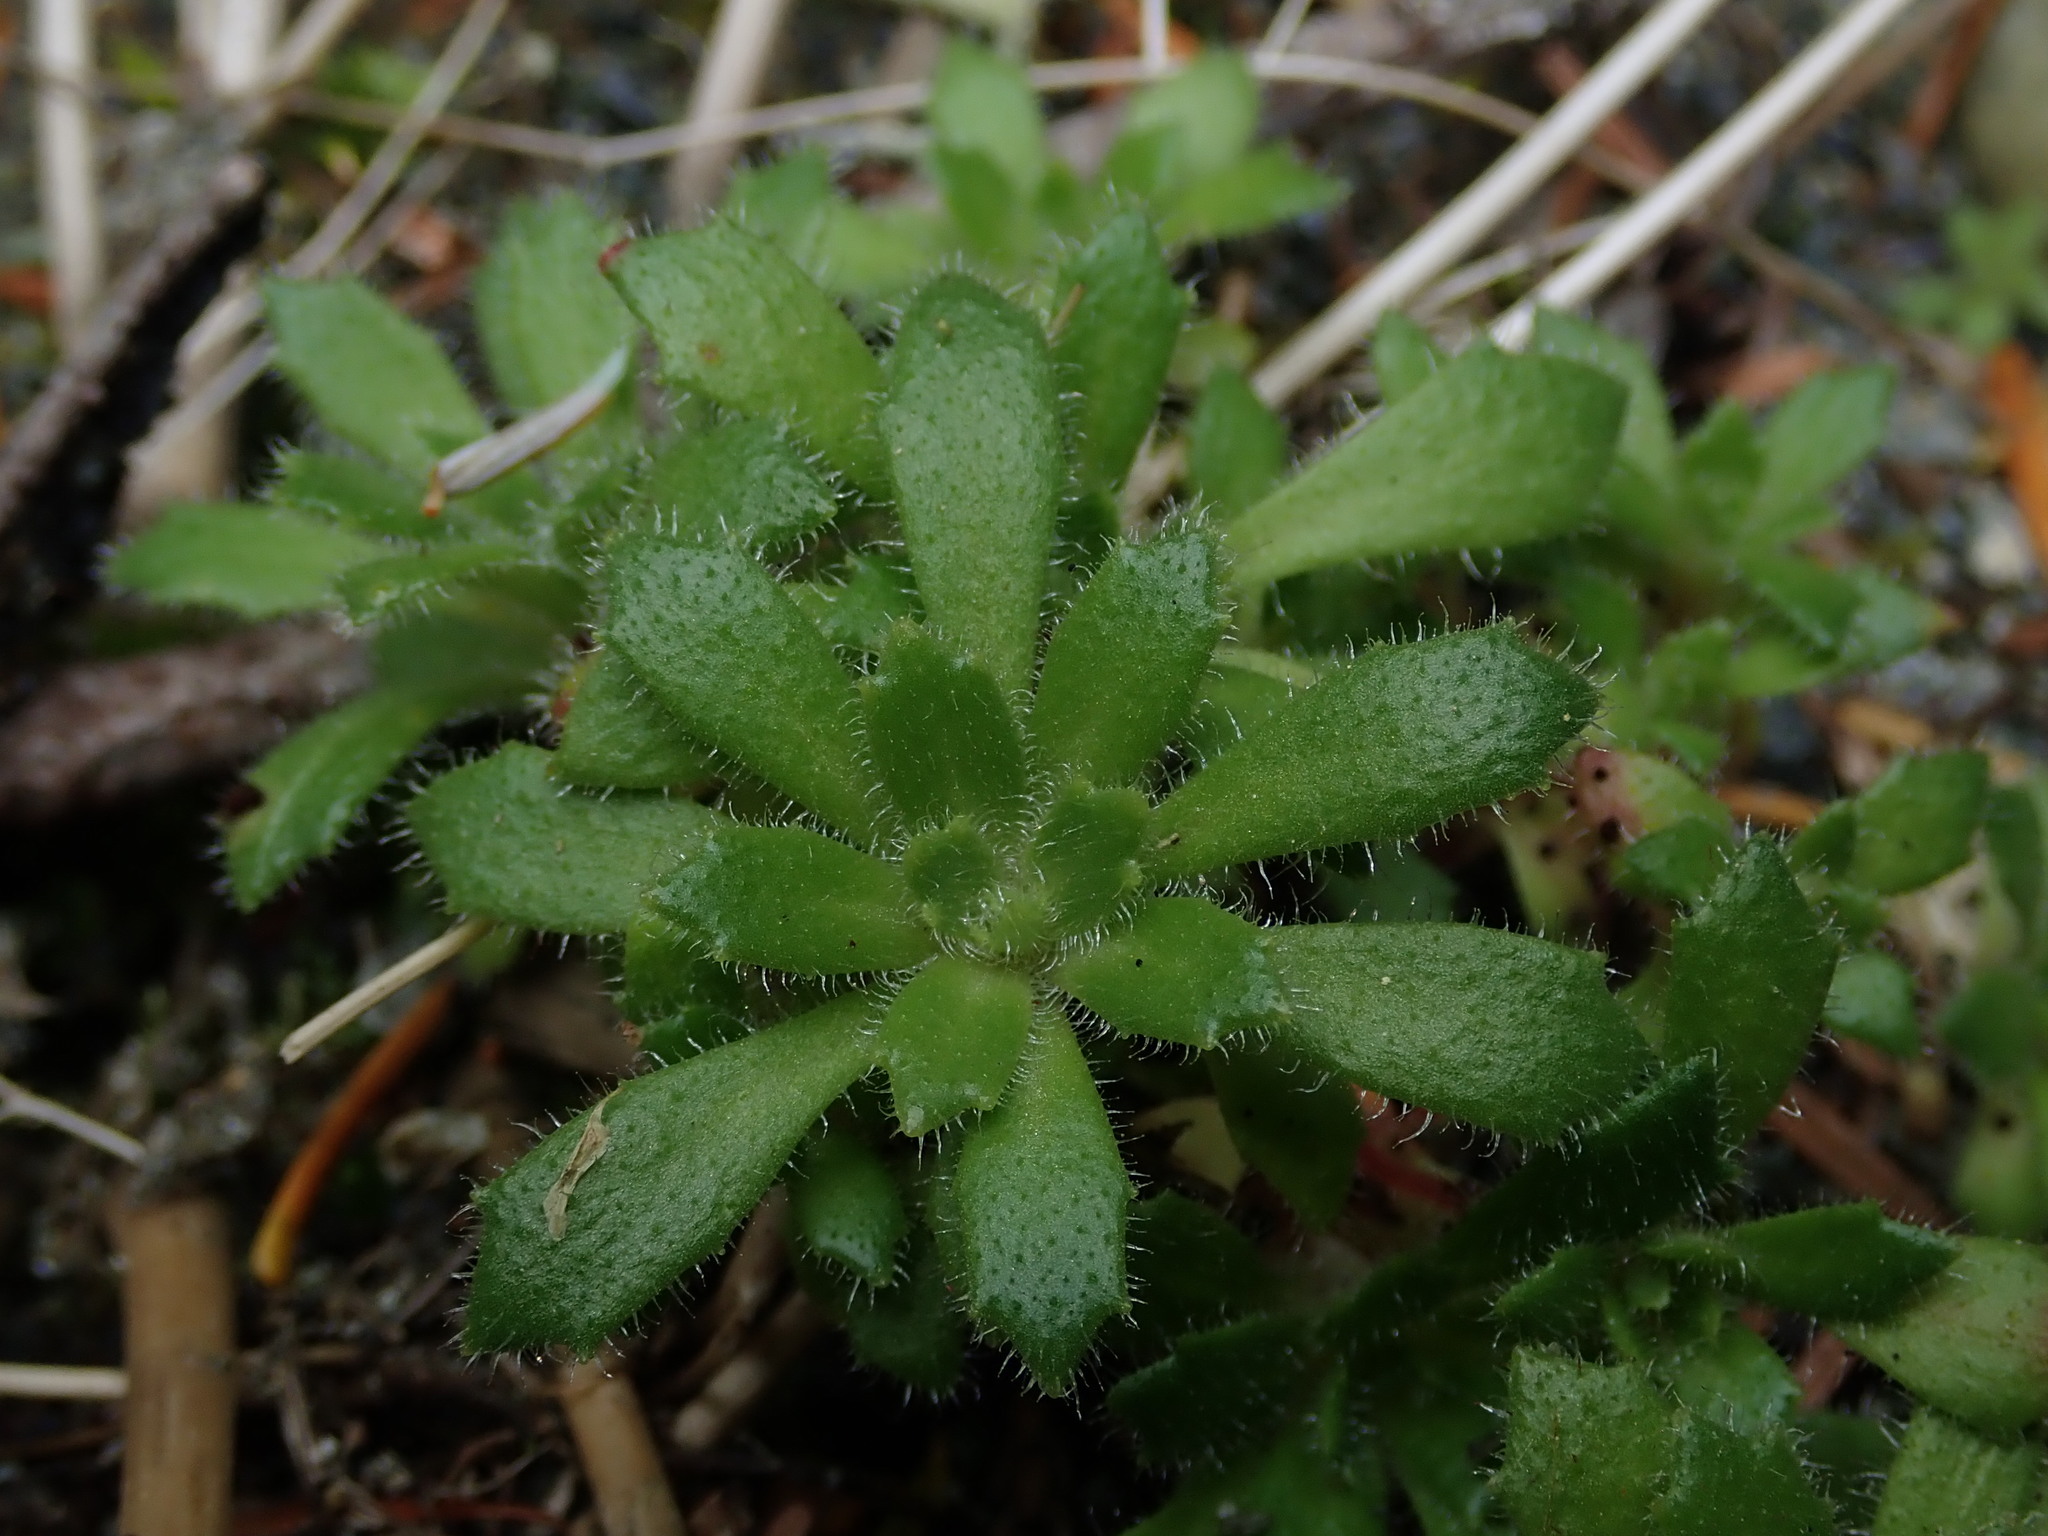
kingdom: Plantae
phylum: Tracheophyta
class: Magnoliopsida
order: Saxifragales
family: Saxifragaceae
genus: Micranthes
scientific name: Micranthes ferruginea
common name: Rusty saxifrage
